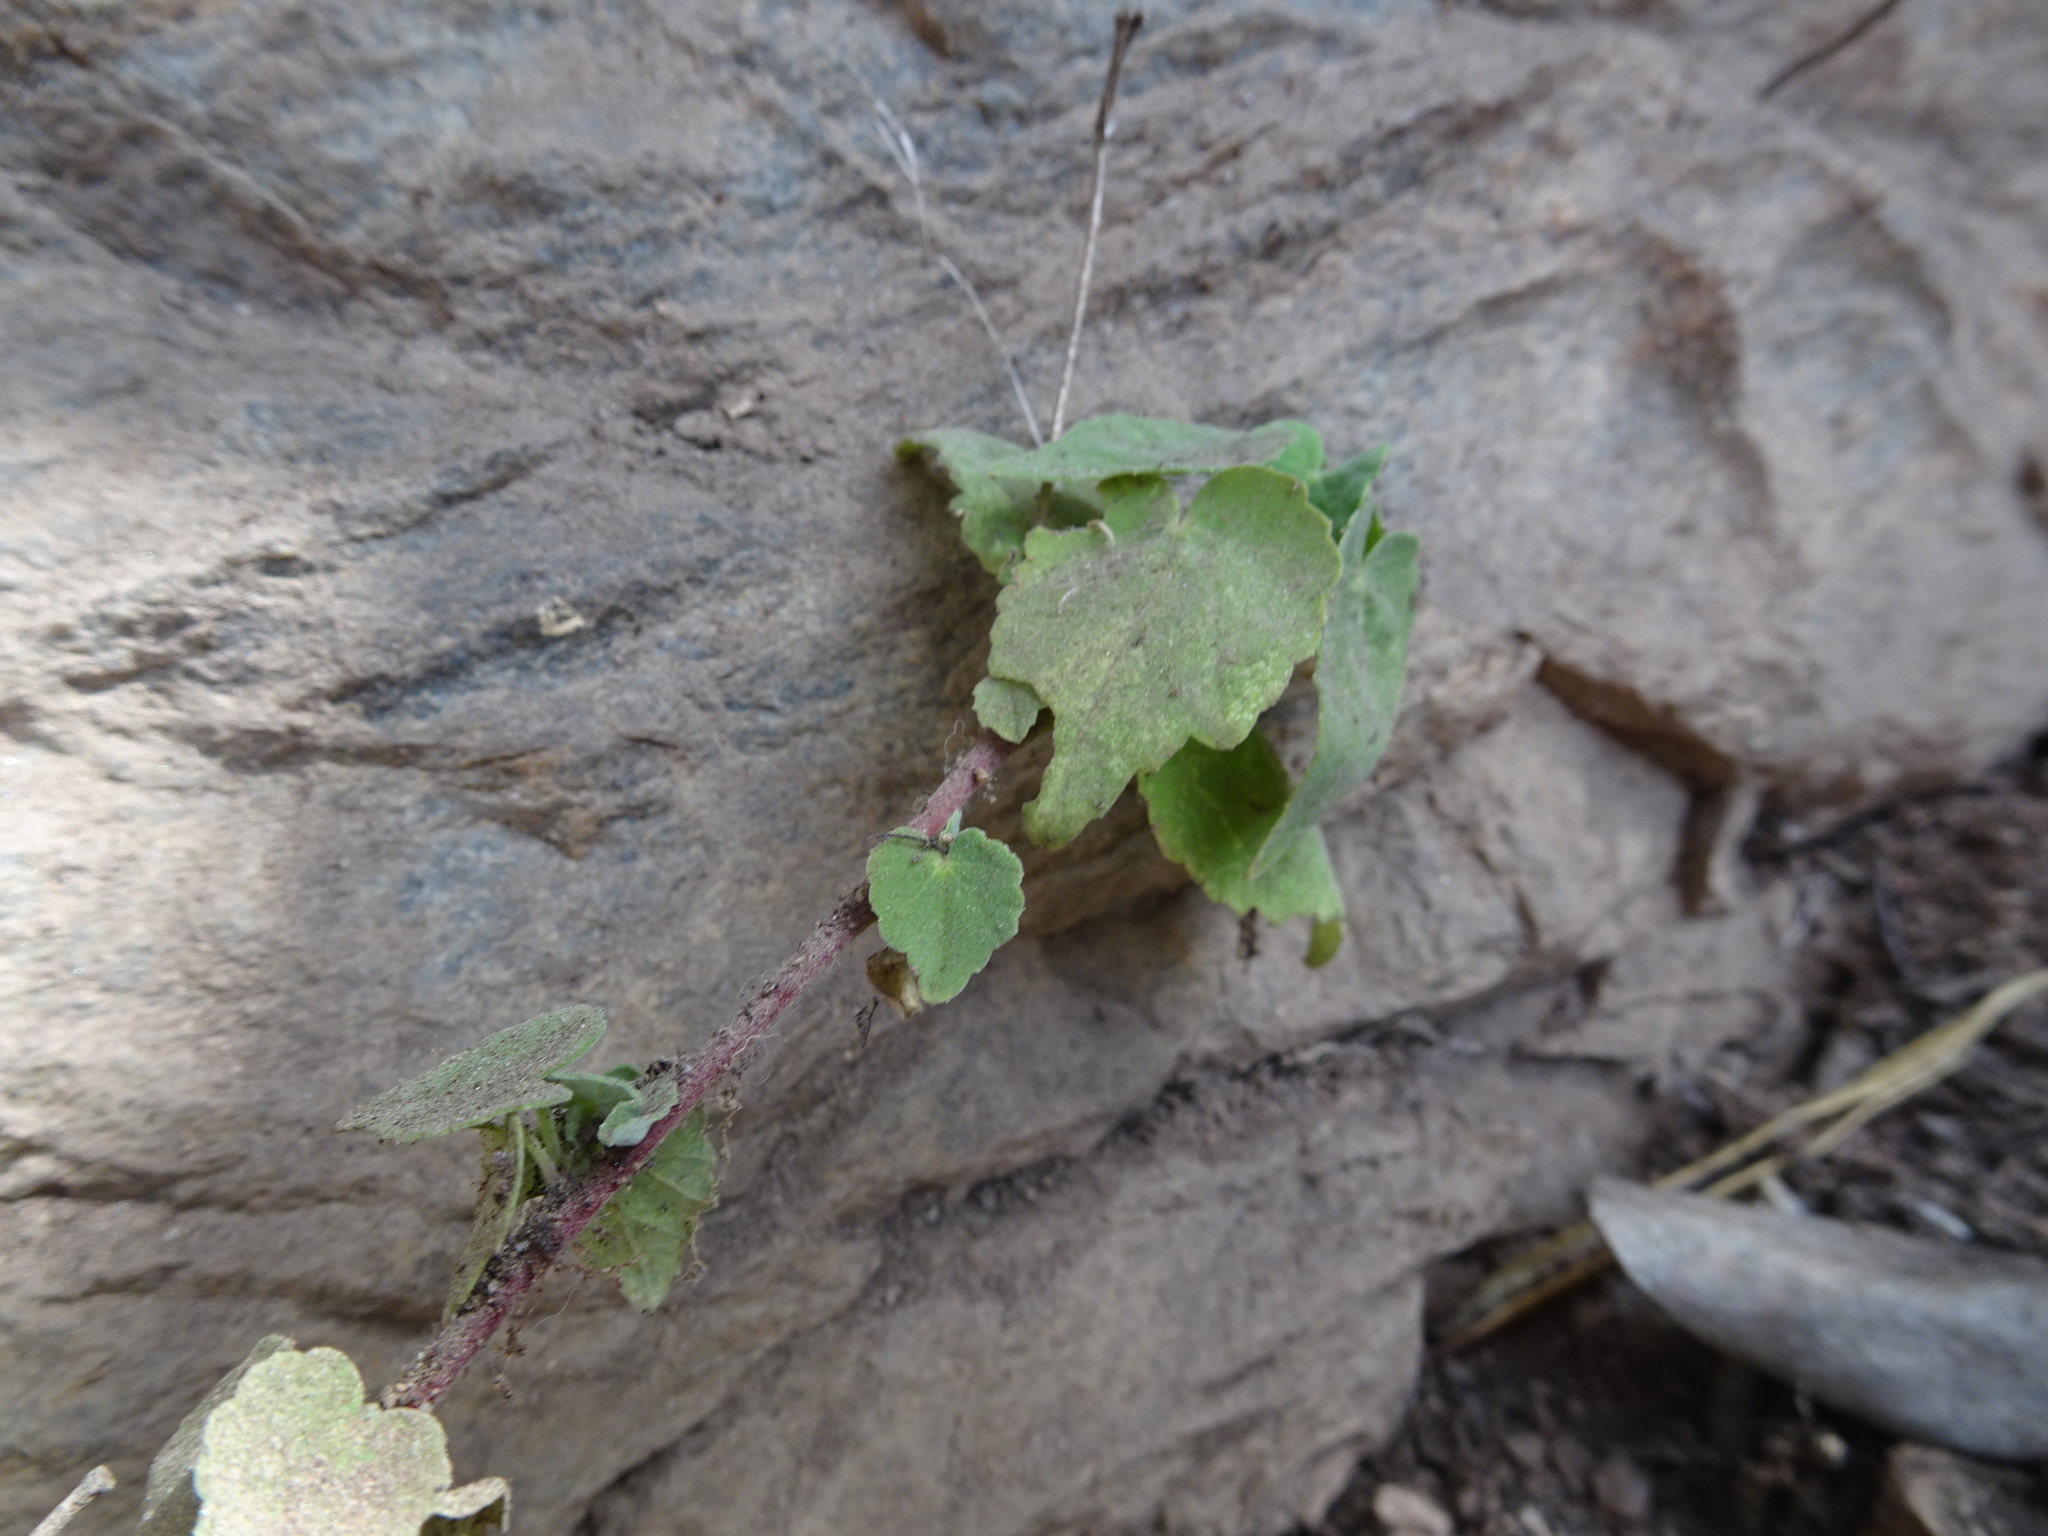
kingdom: Plantae
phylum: Tracheophyta
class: Magnoliopsida
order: Malvales
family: Malvaceae
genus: Abutilon
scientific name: Abutilon sonneratianum
